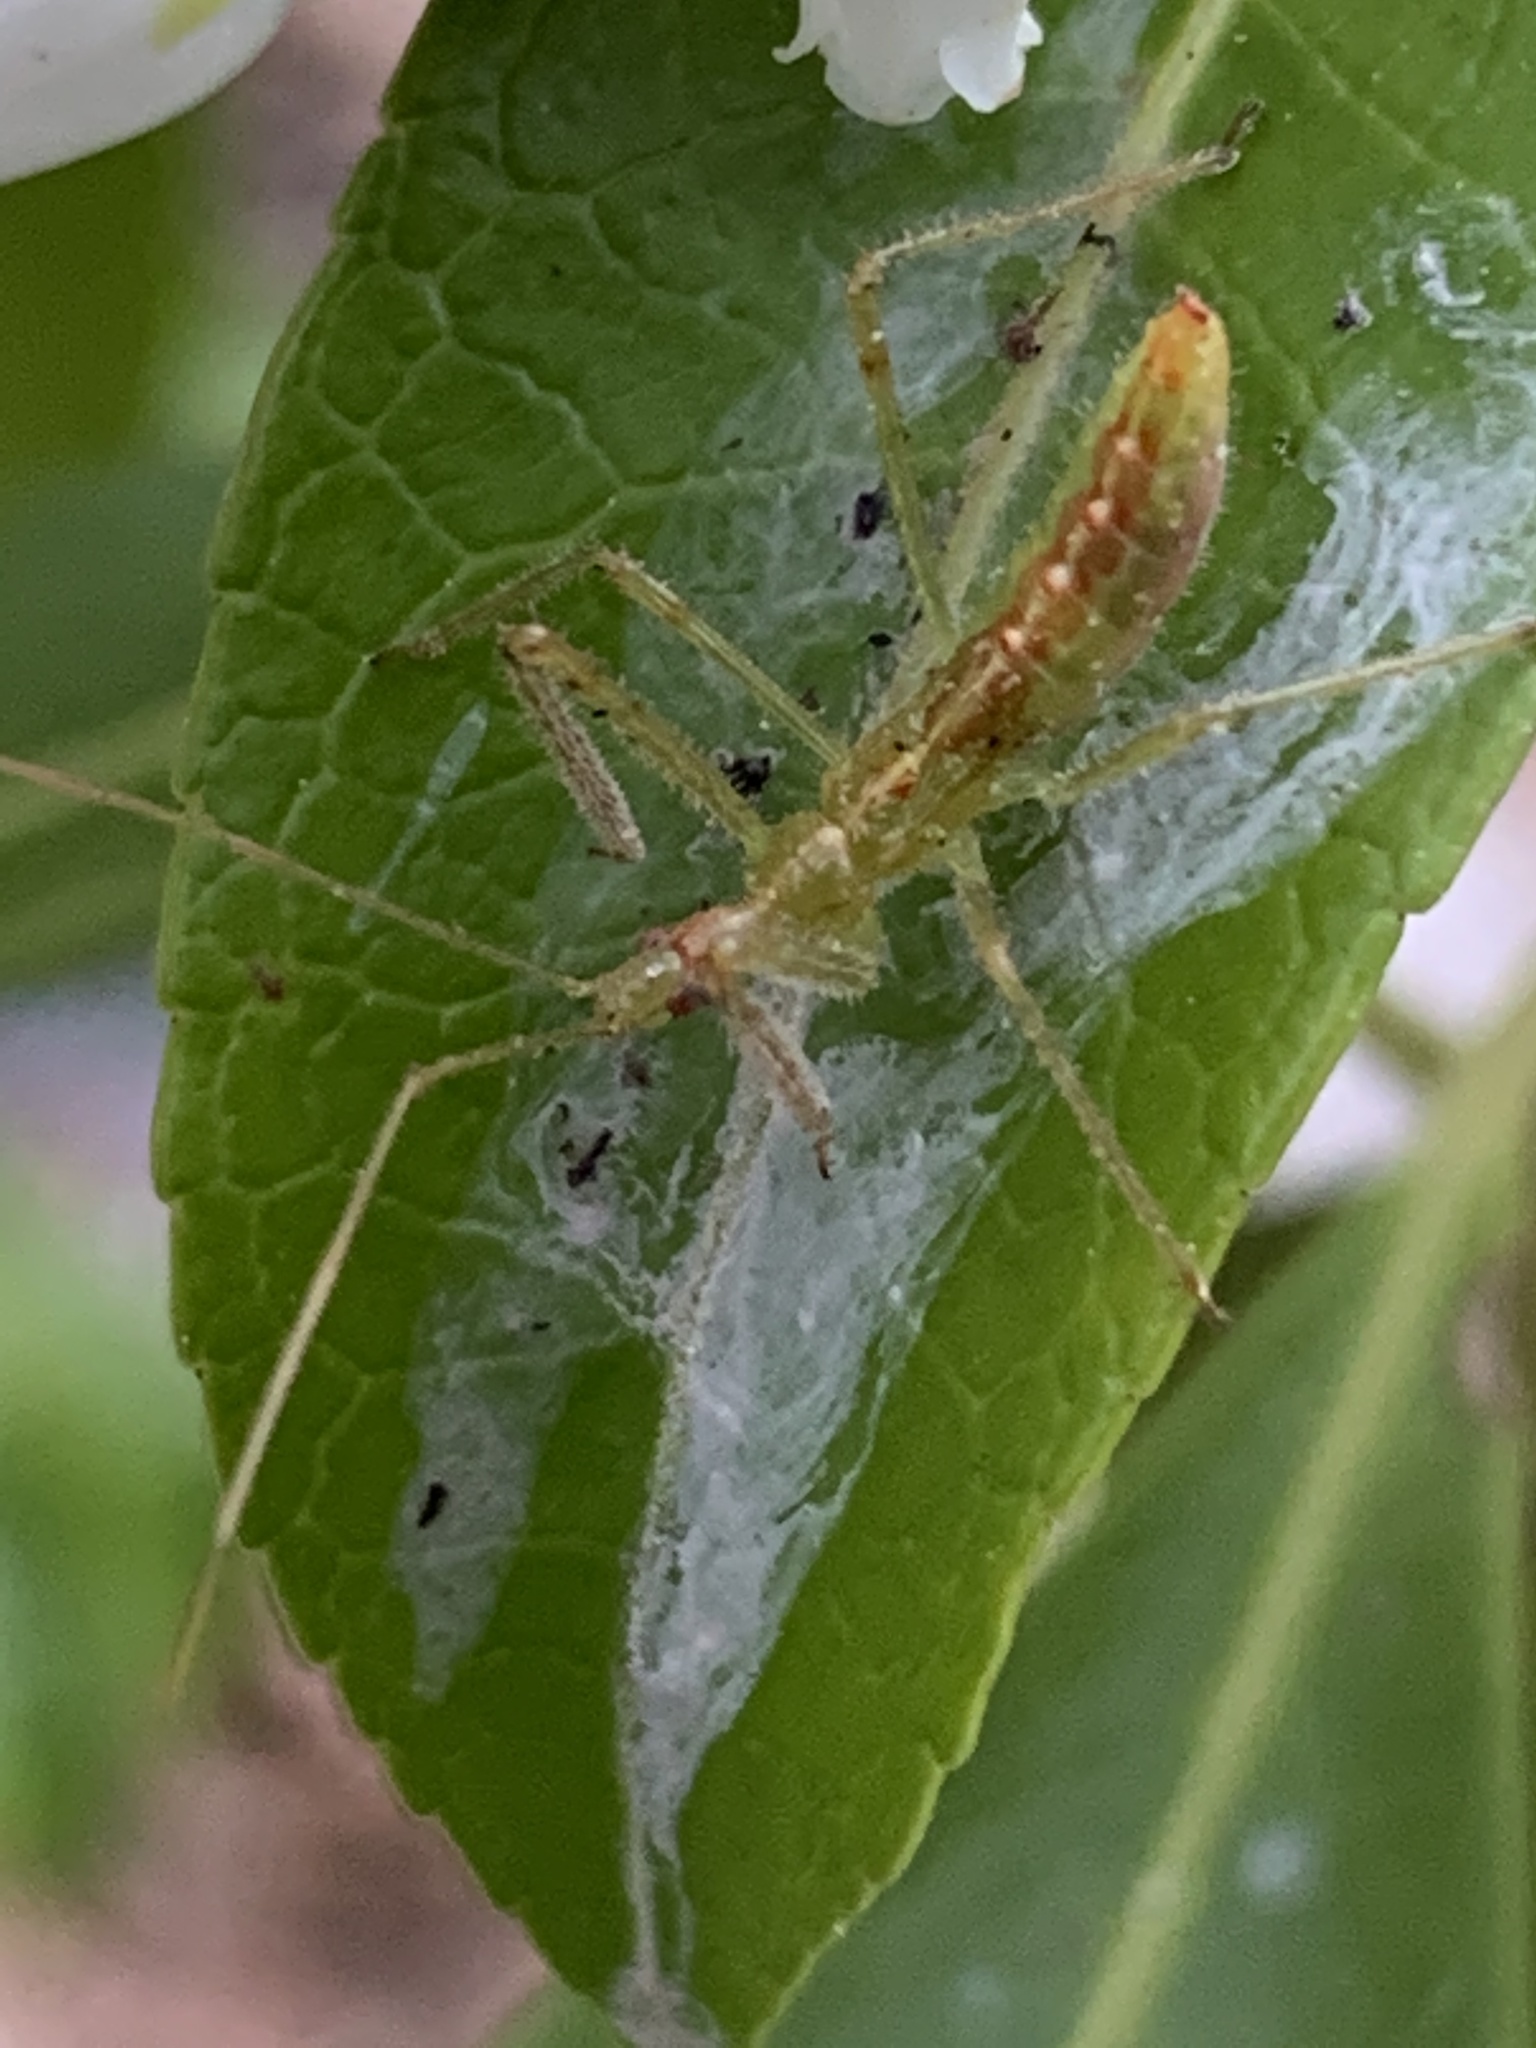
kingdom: Animalia
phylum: Arthropoda
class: Insecta
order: Hemiptera
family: Reduviidae
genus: Zelus
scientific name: Zelus luridus
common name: Pale green assassin bug
